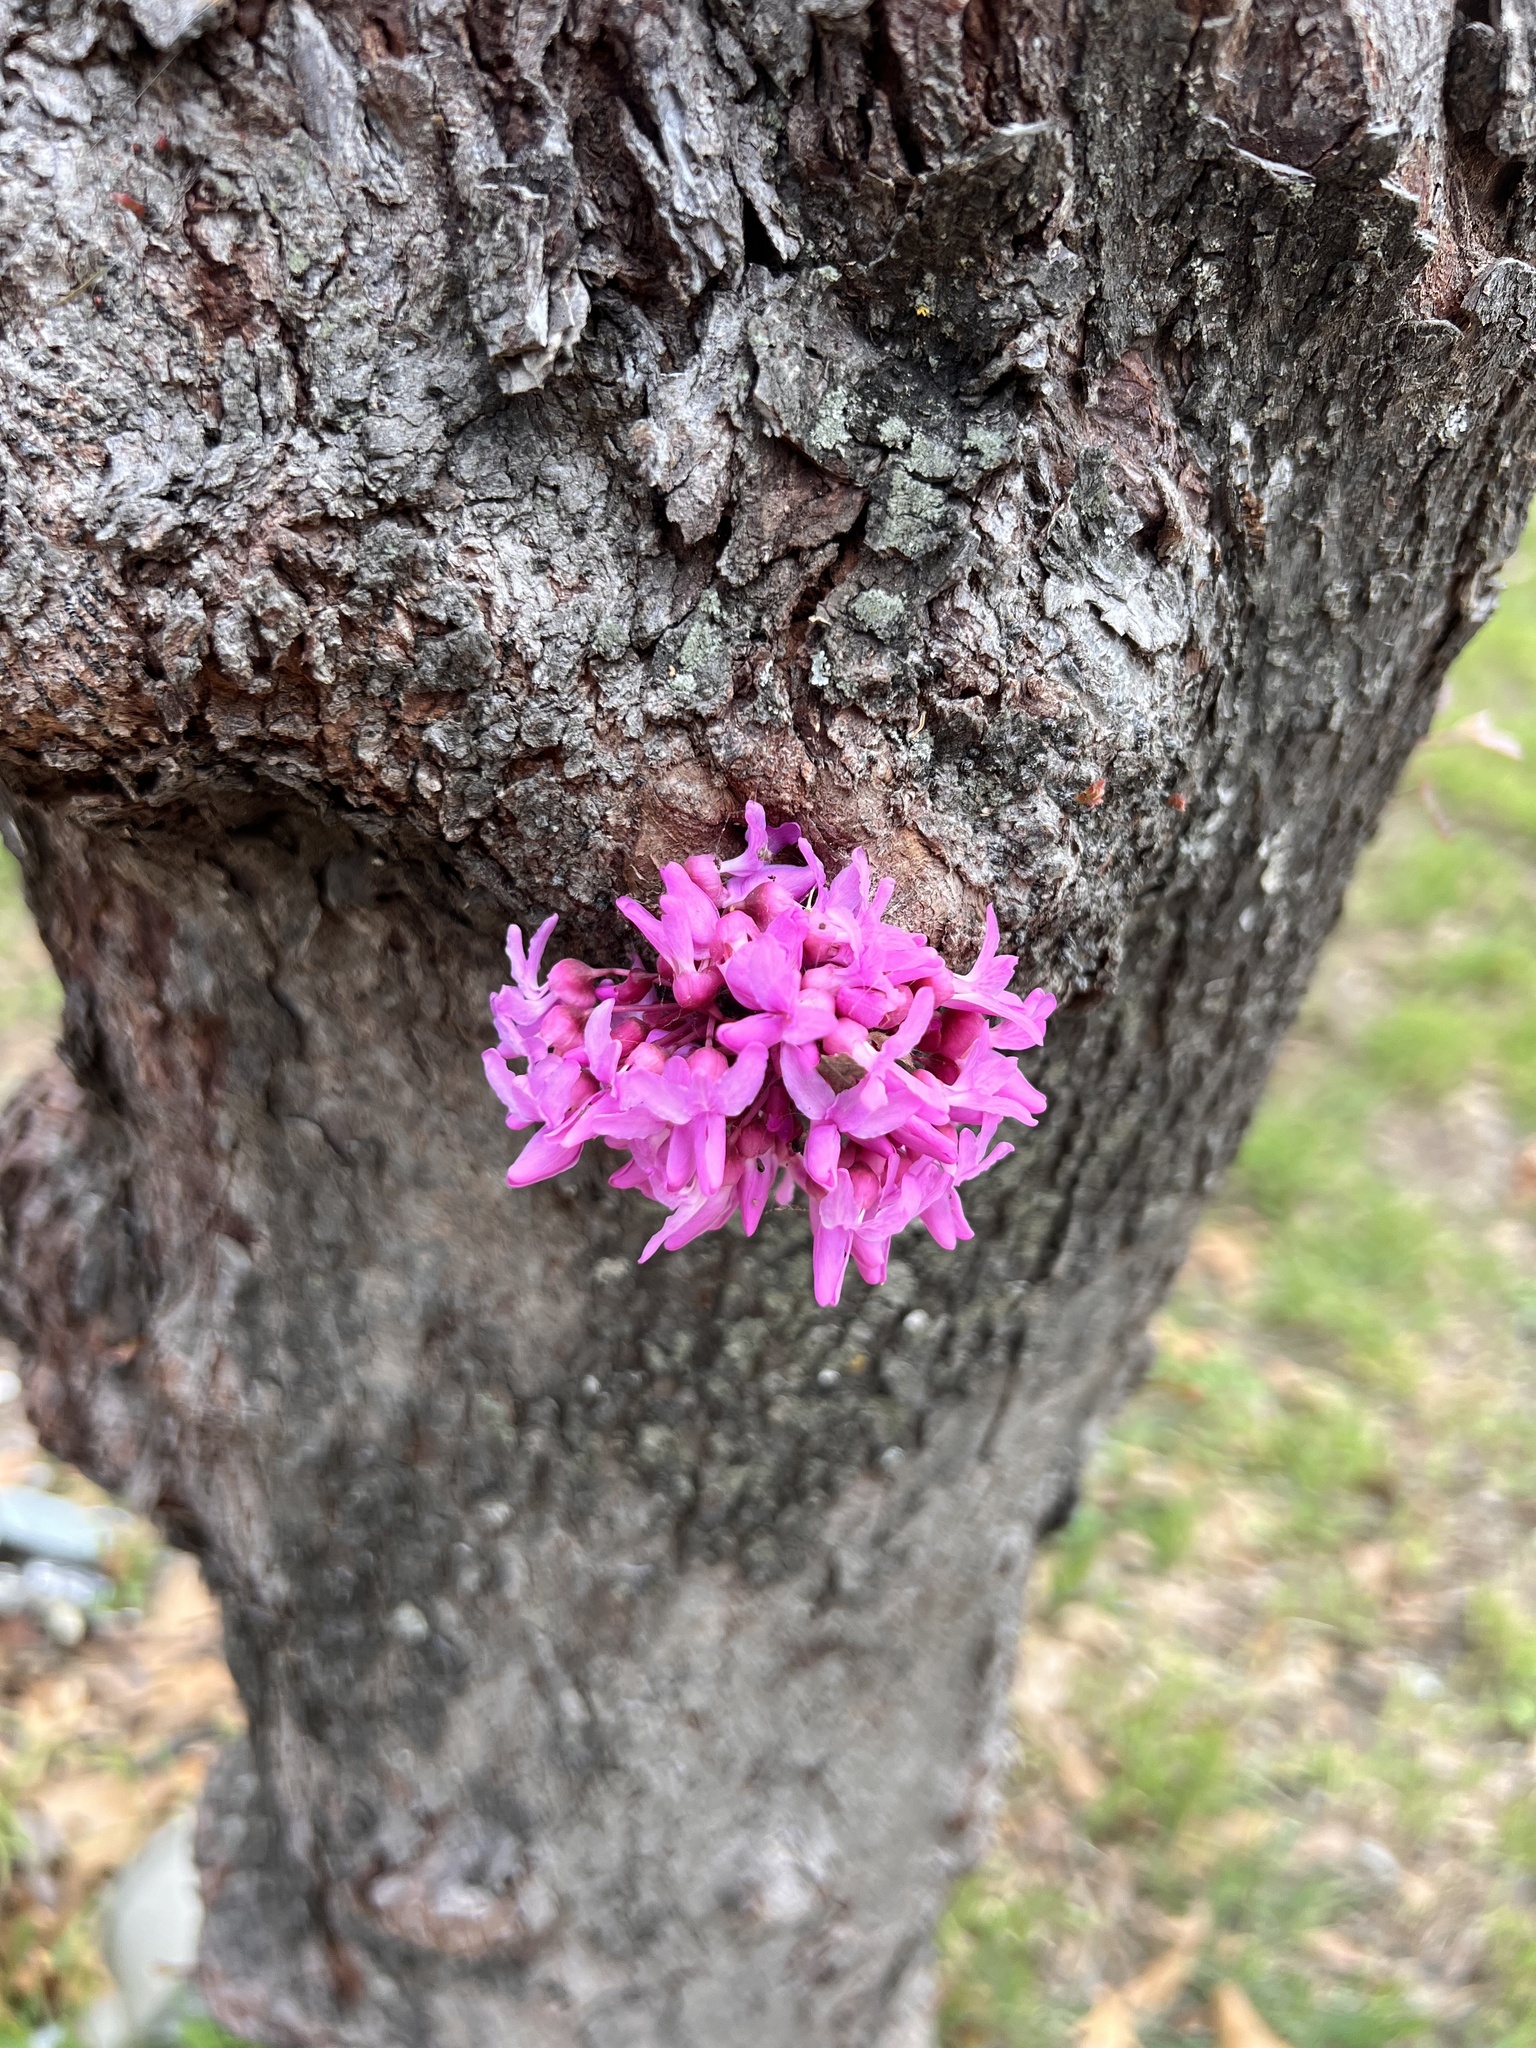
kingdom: Plantae
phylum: Tracheophyta
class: Magnoliopsida
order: Fabales
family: Fabaceae
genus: Cercis
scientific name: Cercis canadensis
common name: Eastern redbud
